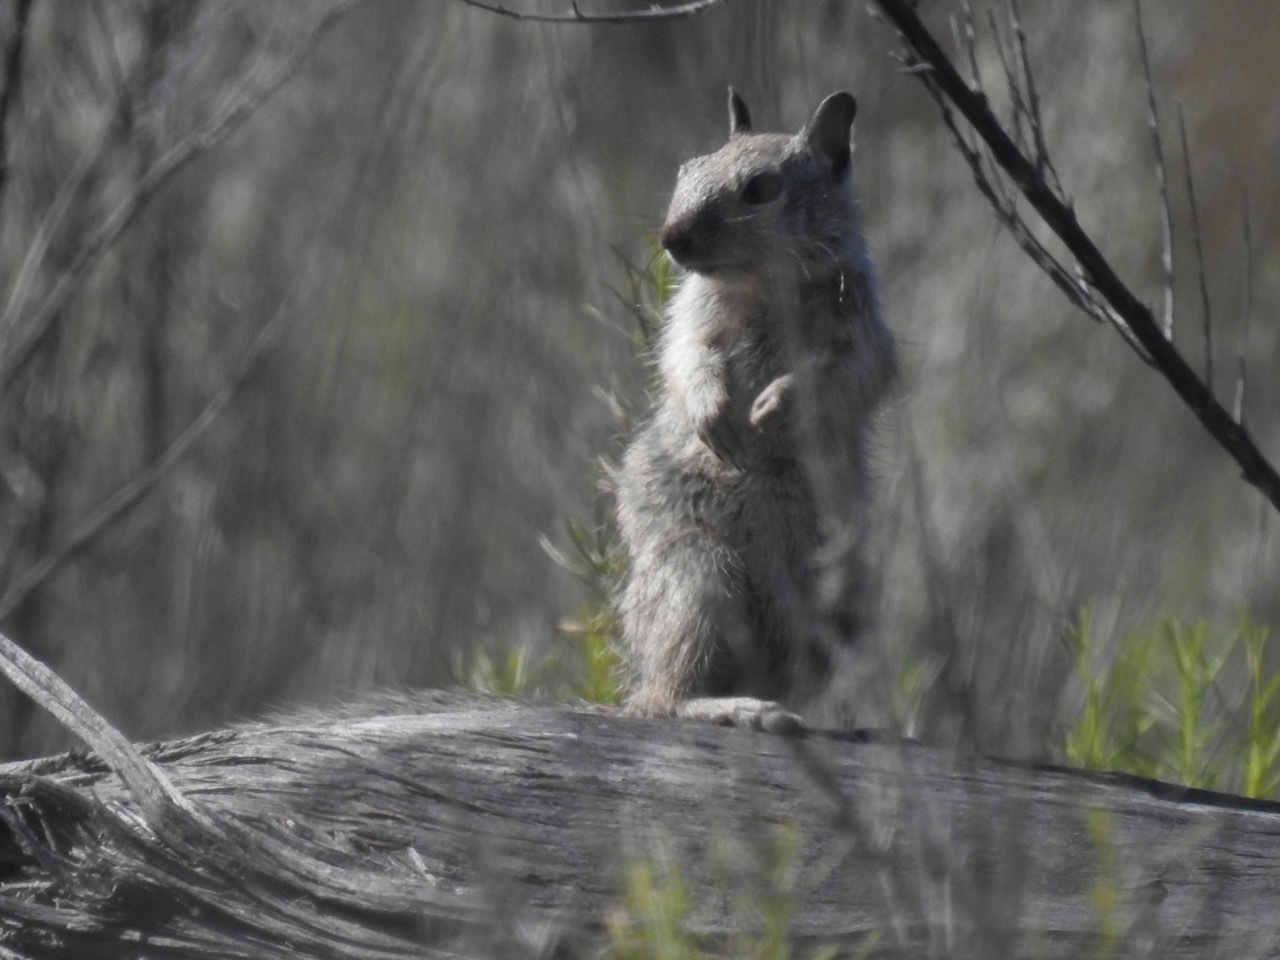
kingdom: Animalia
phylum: Chordata
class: Mammalia
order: Rodentia
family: Sciuridae
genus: Otospermophilus
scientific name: Otospermophilus beecheyi
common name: California ground squirrel
